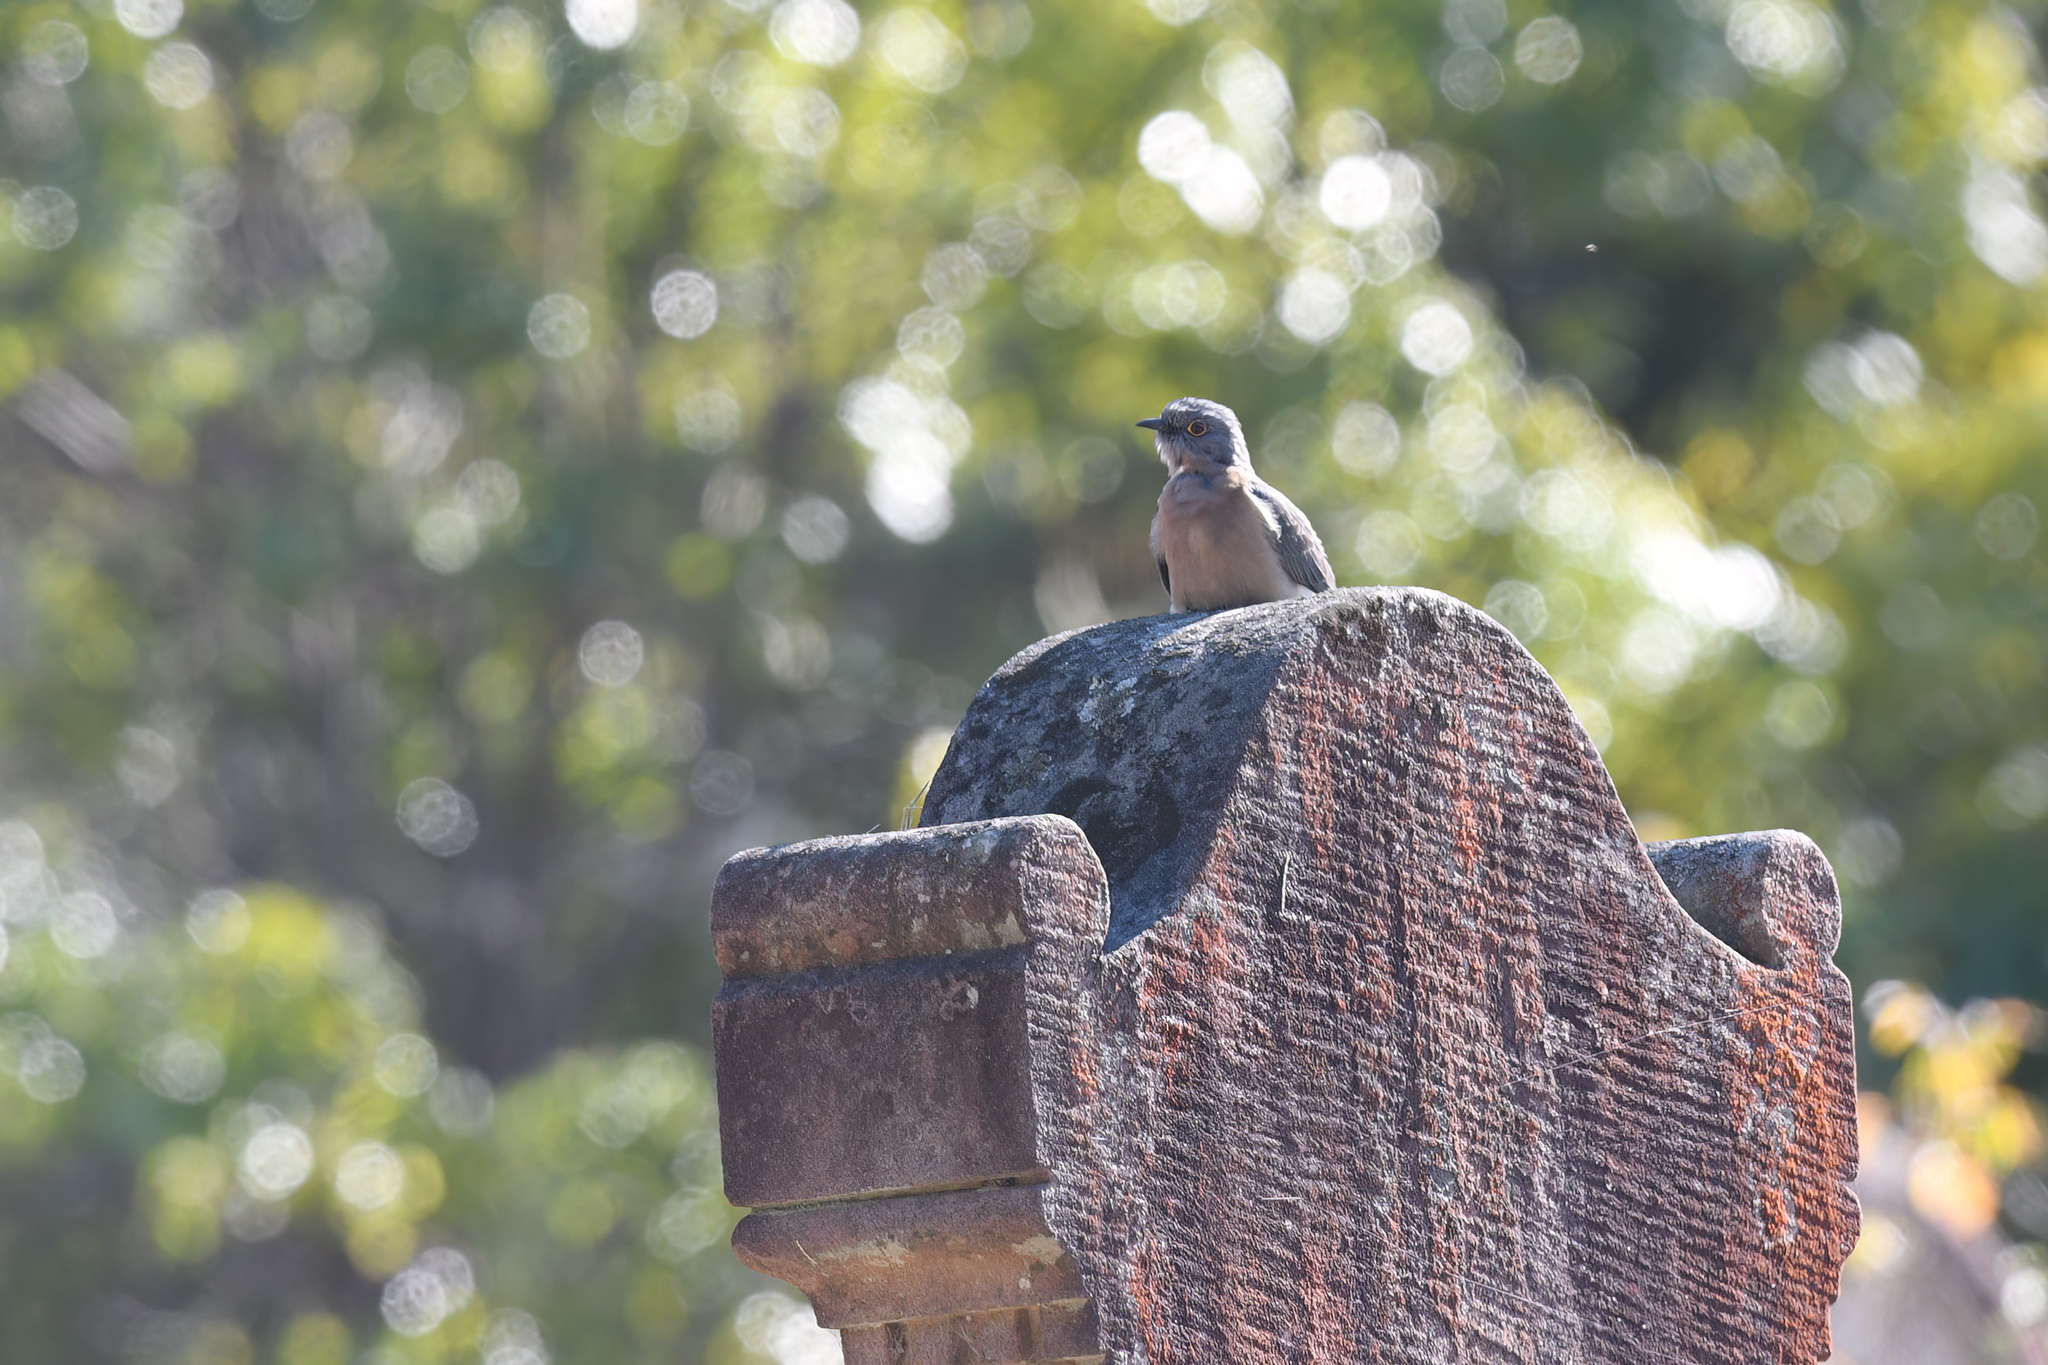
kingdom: Animalia
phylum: Chordata
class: Aves
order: Cuculiformes
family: Cuculidae
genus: Cacomantis
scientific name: Cacomantis flabelliformis
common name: Fan-tailed cuckoo
